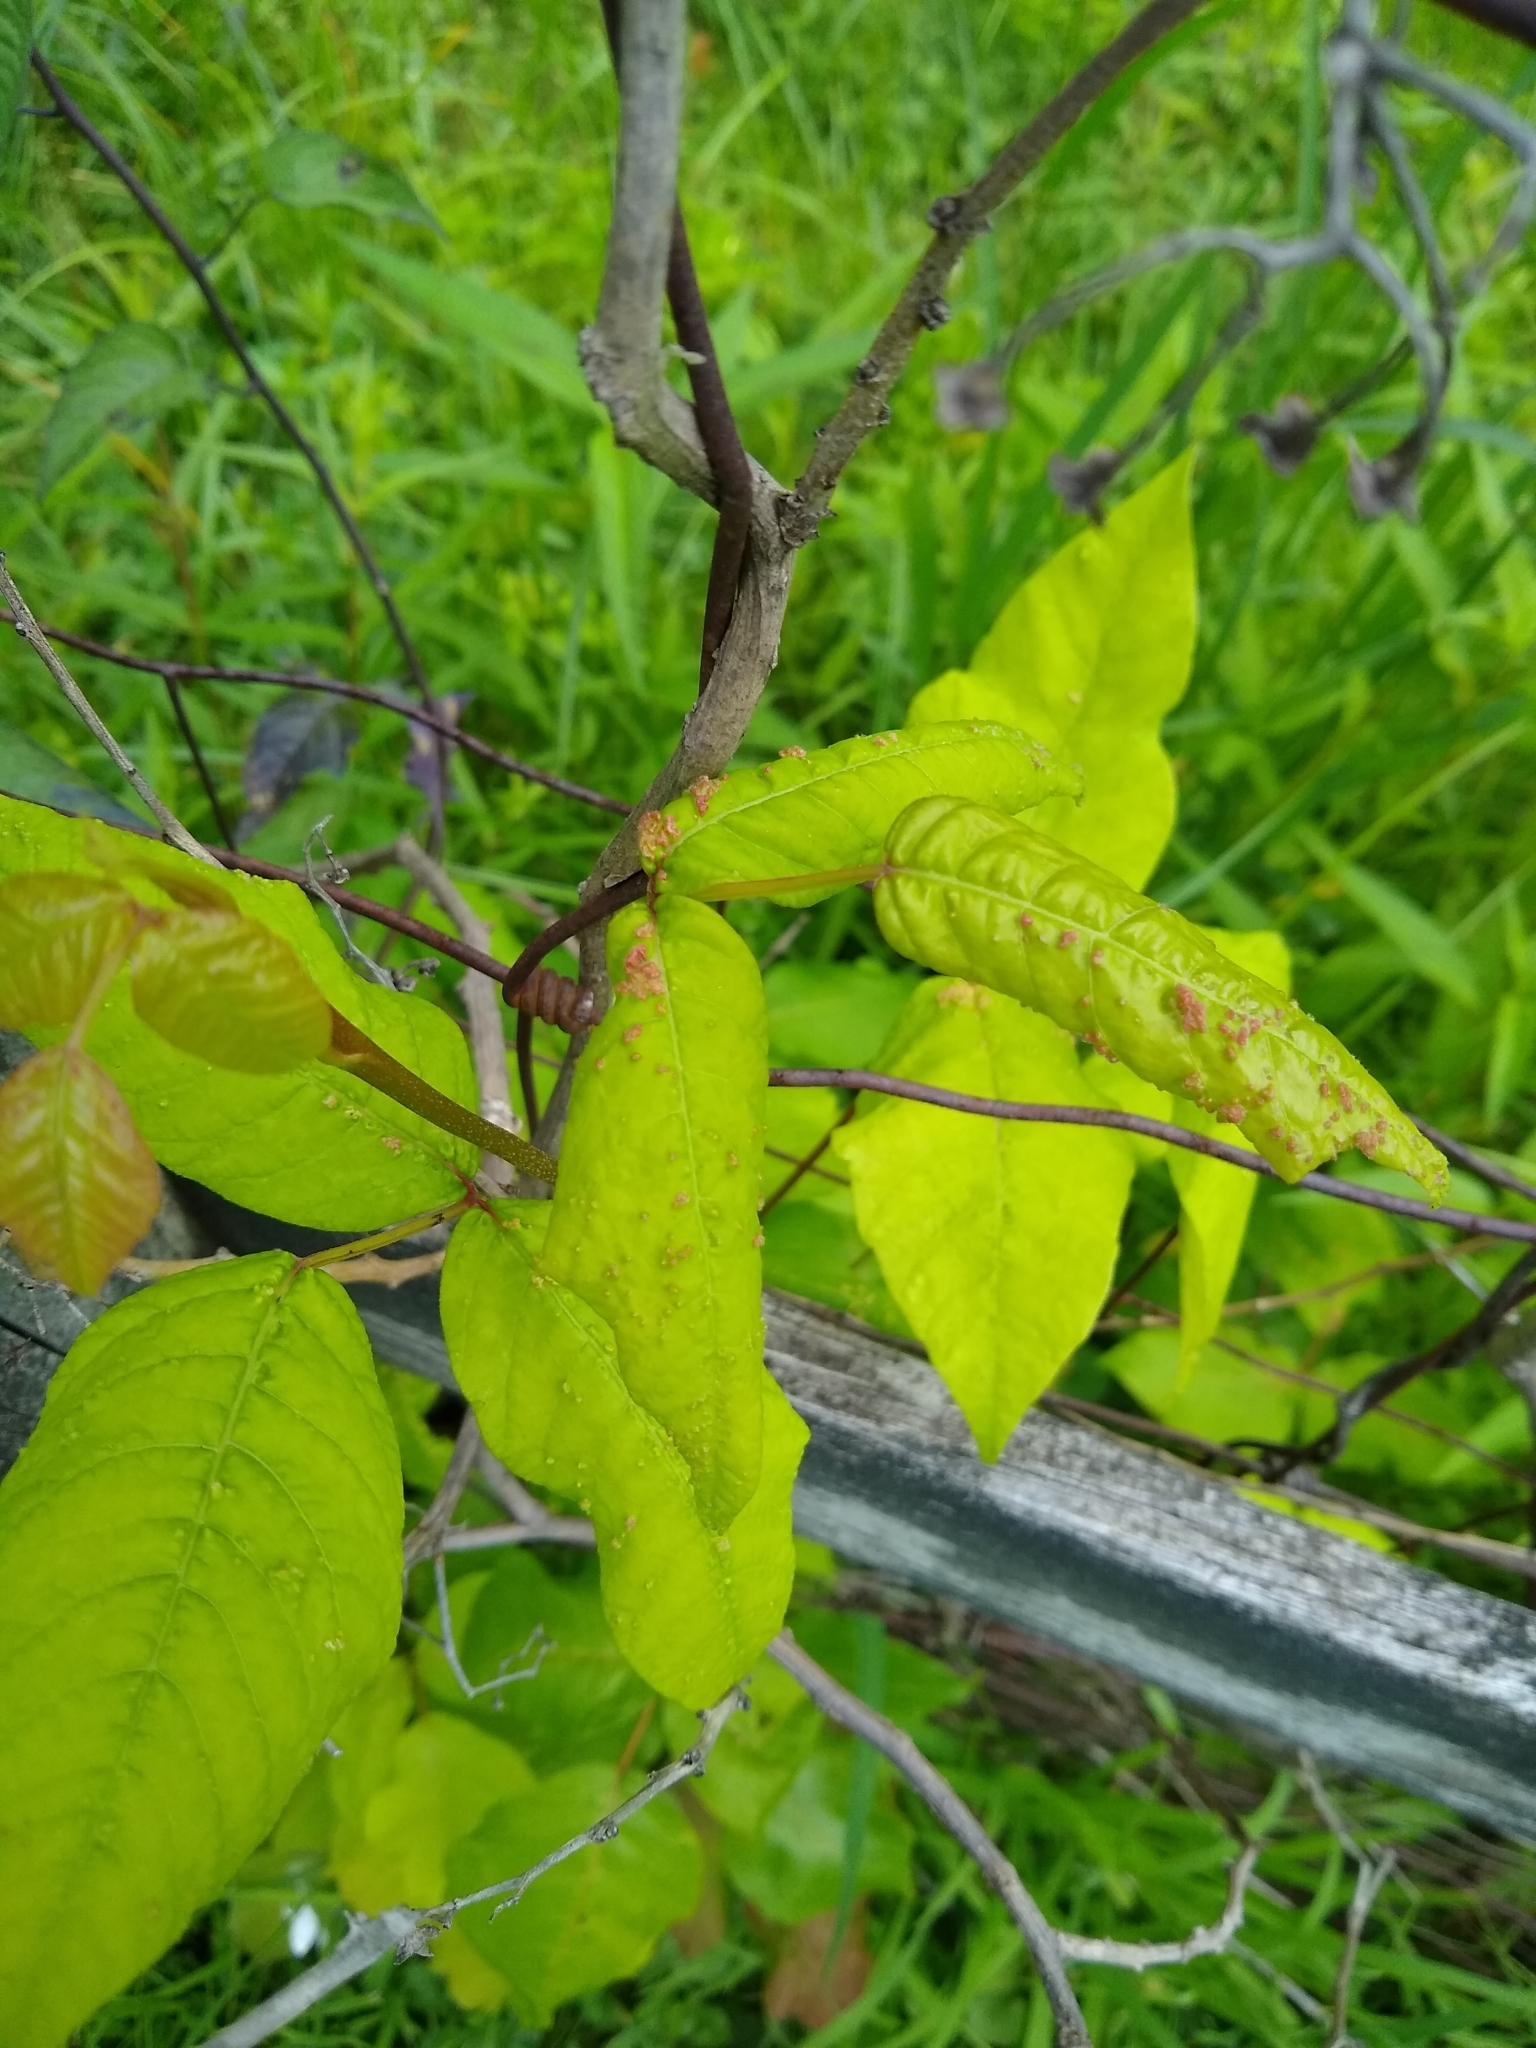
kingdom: Animalia
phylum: Arthropoda
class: Arachnida
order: Trombidiformes
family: Eriophyidae
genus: Aculops
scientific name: Aculops
